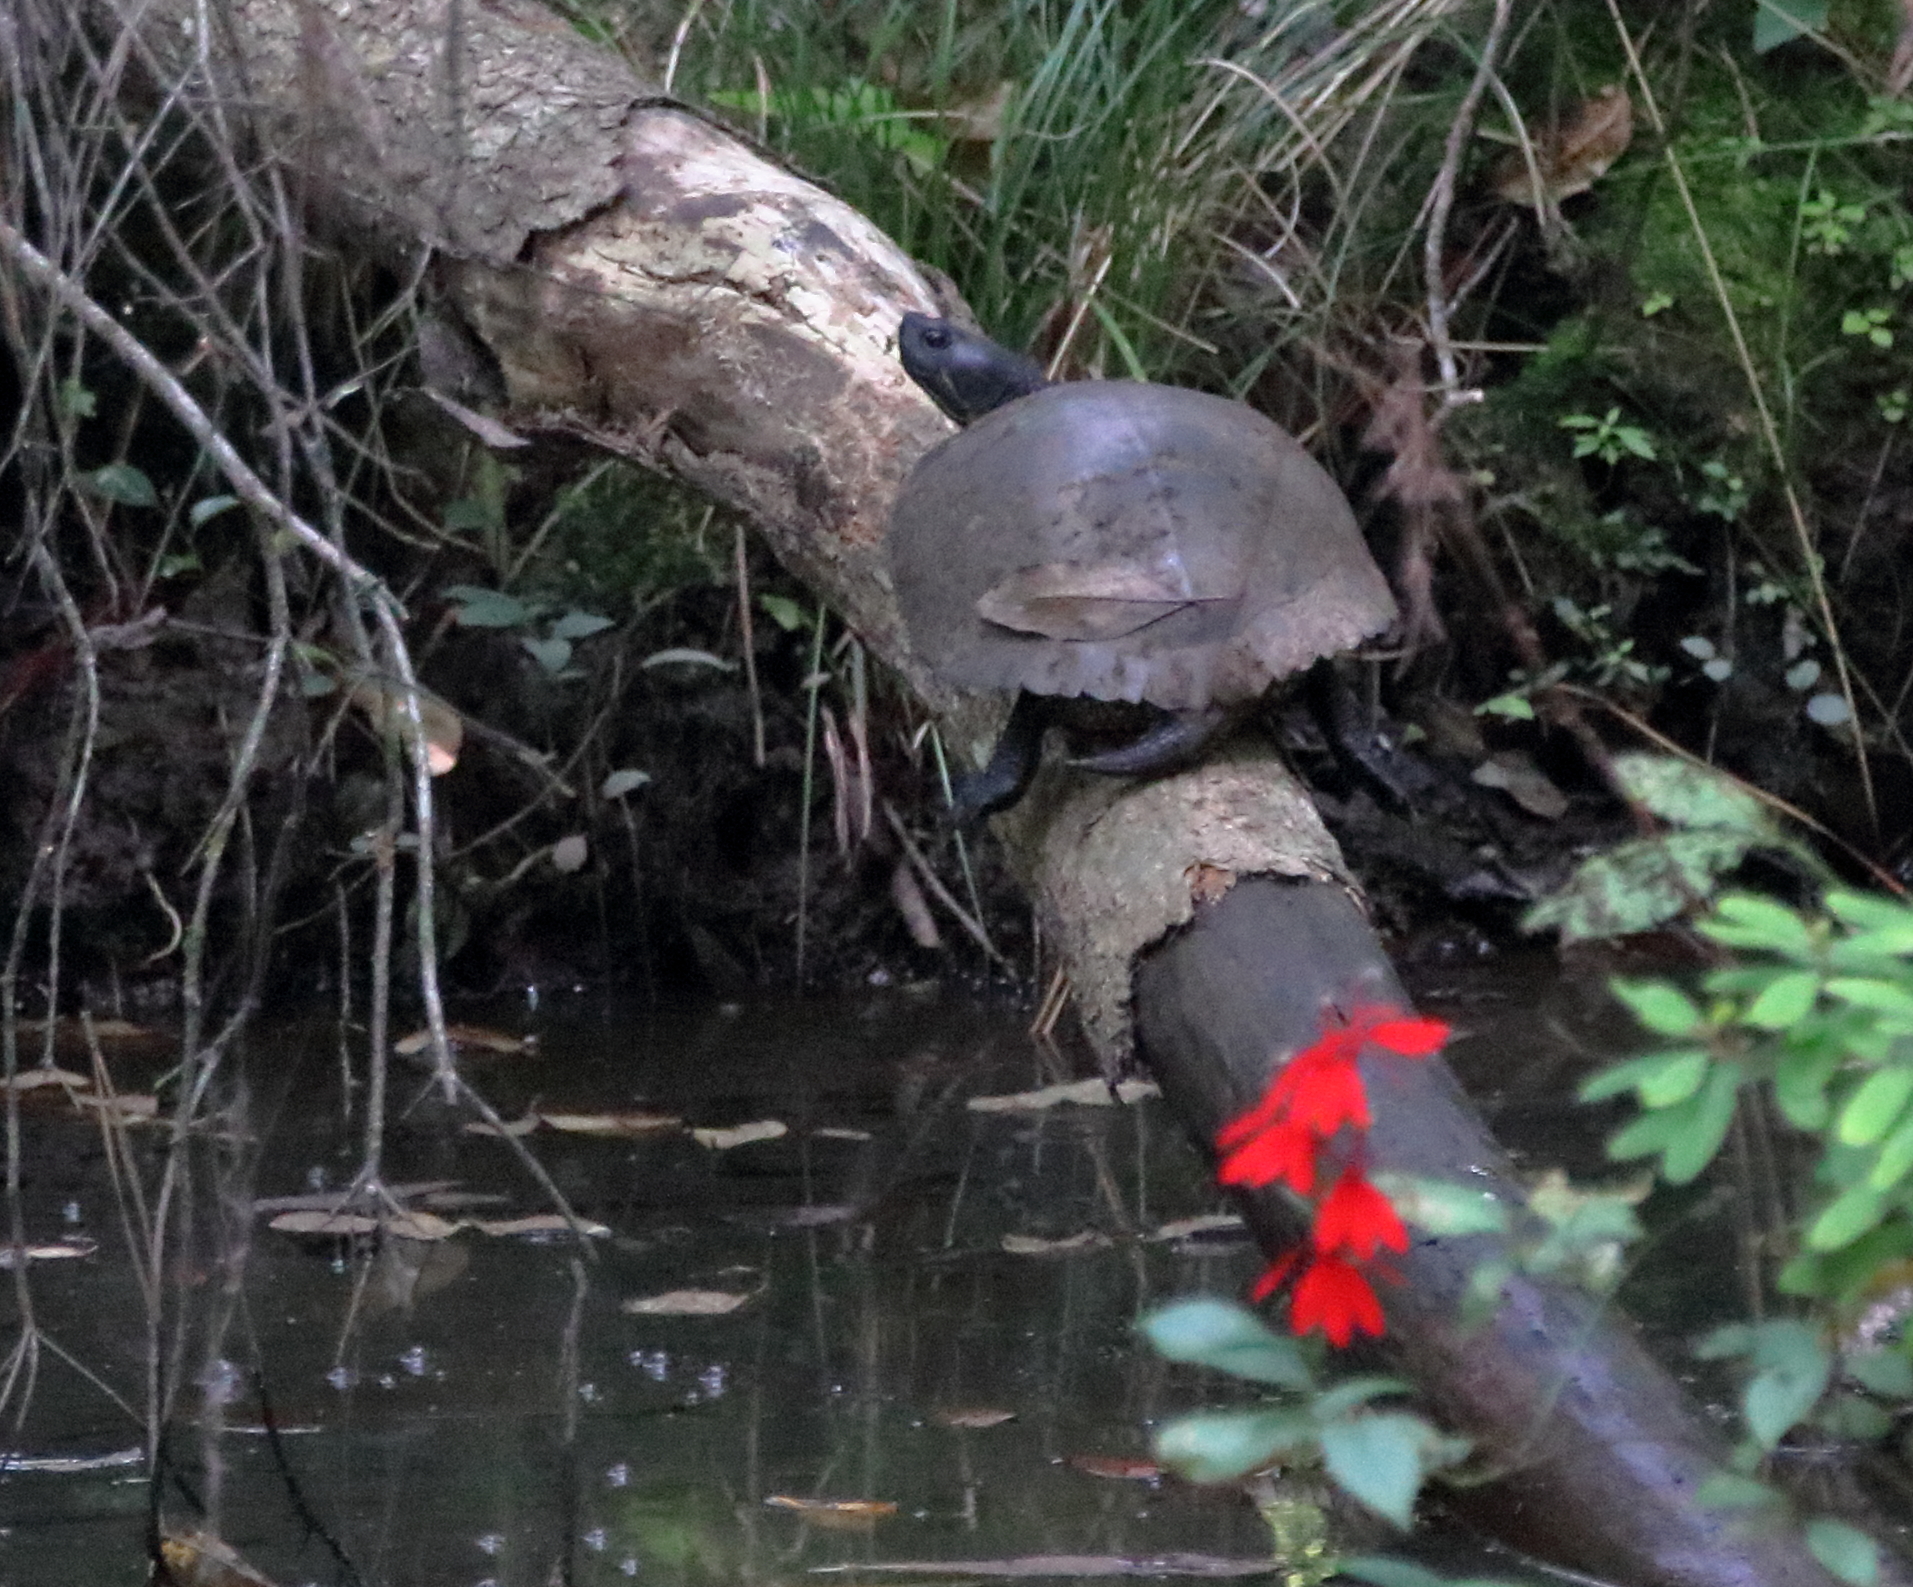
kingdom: Animalia
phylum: Chordata
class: Testudines
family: Emydidae
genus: Trachemys
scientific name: Trachemys scripta
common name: Slider
